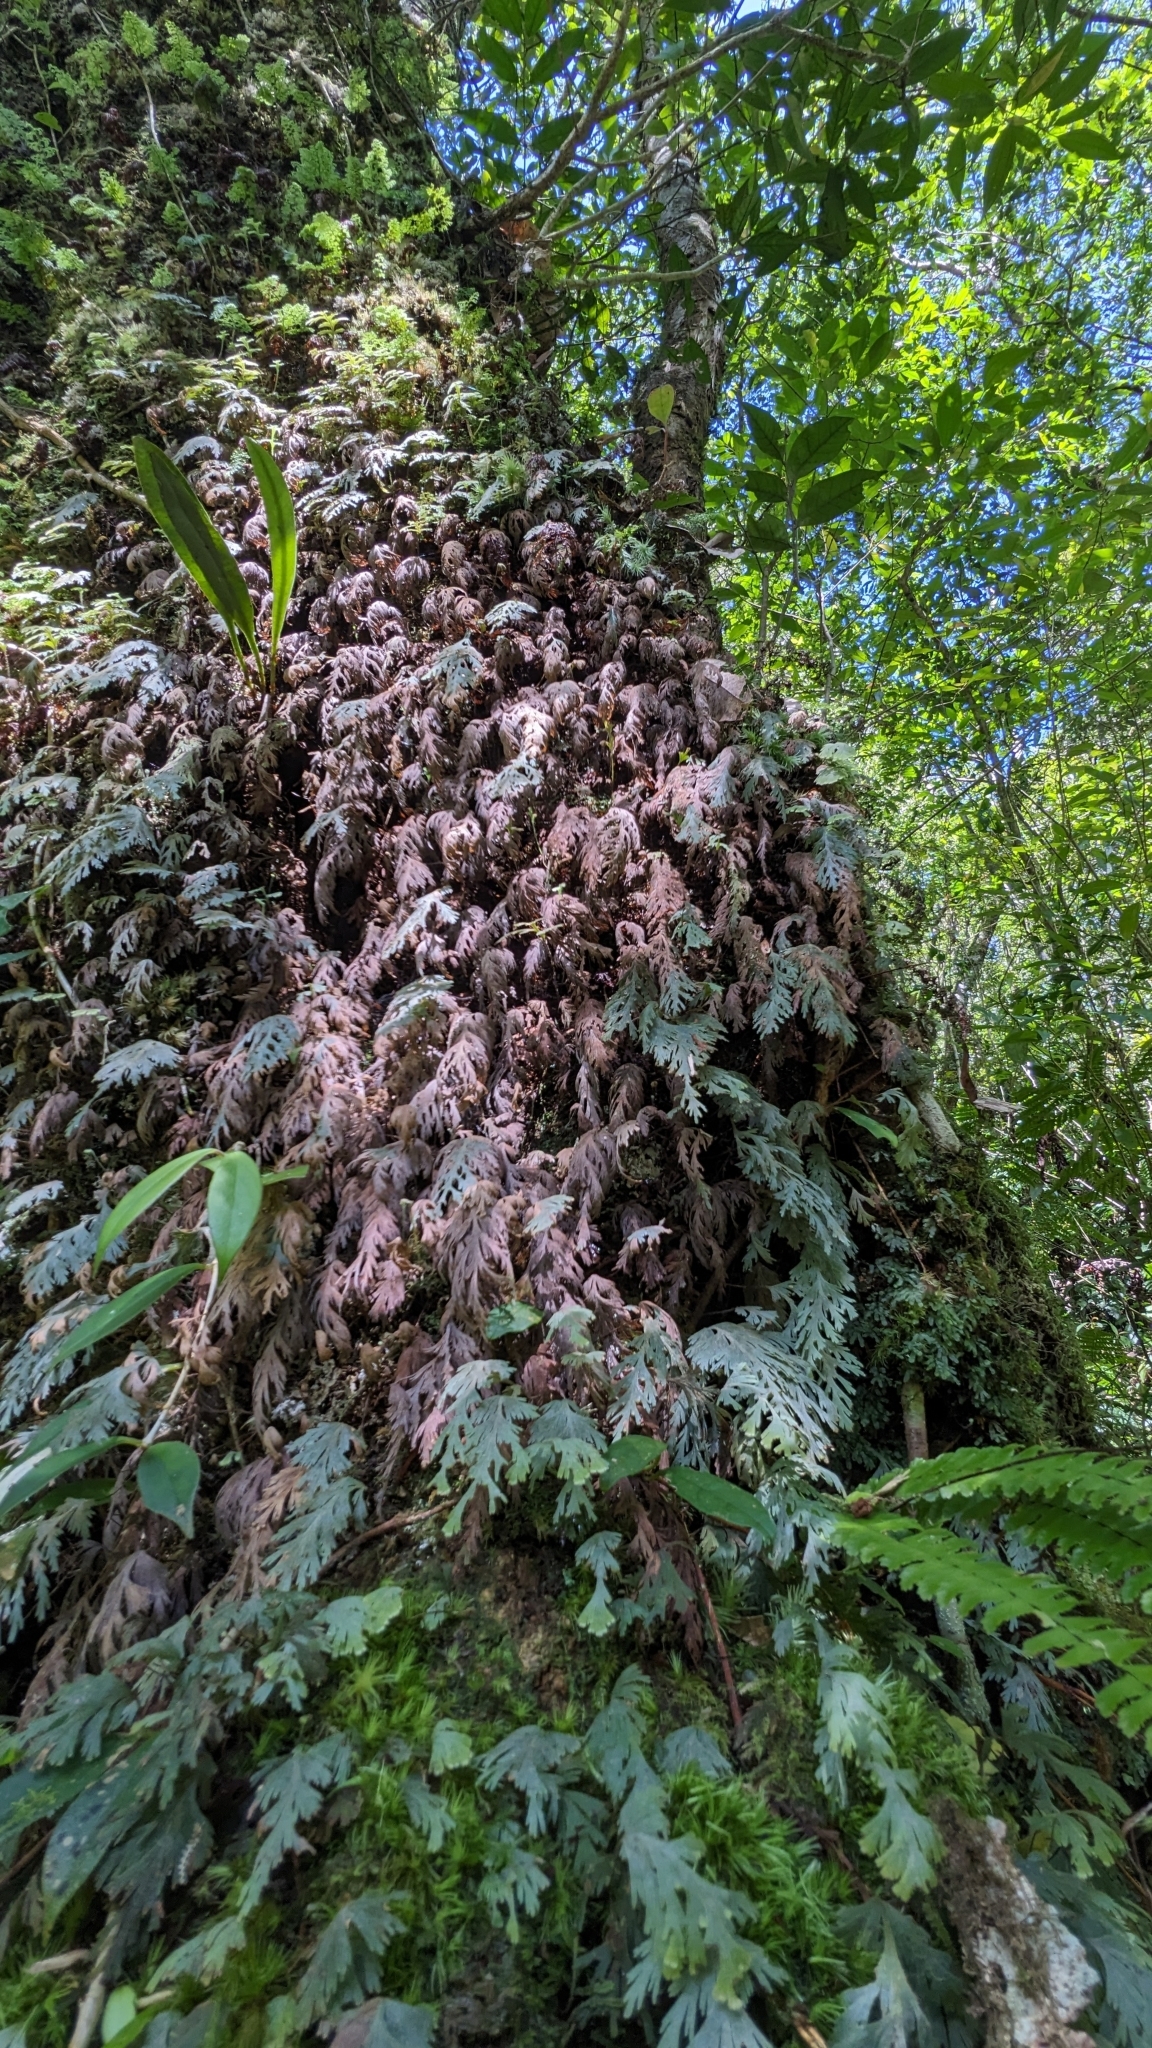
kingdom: Plantae
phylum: Tracheophyta
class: Polypodiopsida
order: Hymenophyllales
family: Hymenophyllaceae
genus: Hymenophyllum
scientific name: Hymenophyllum pallidum
